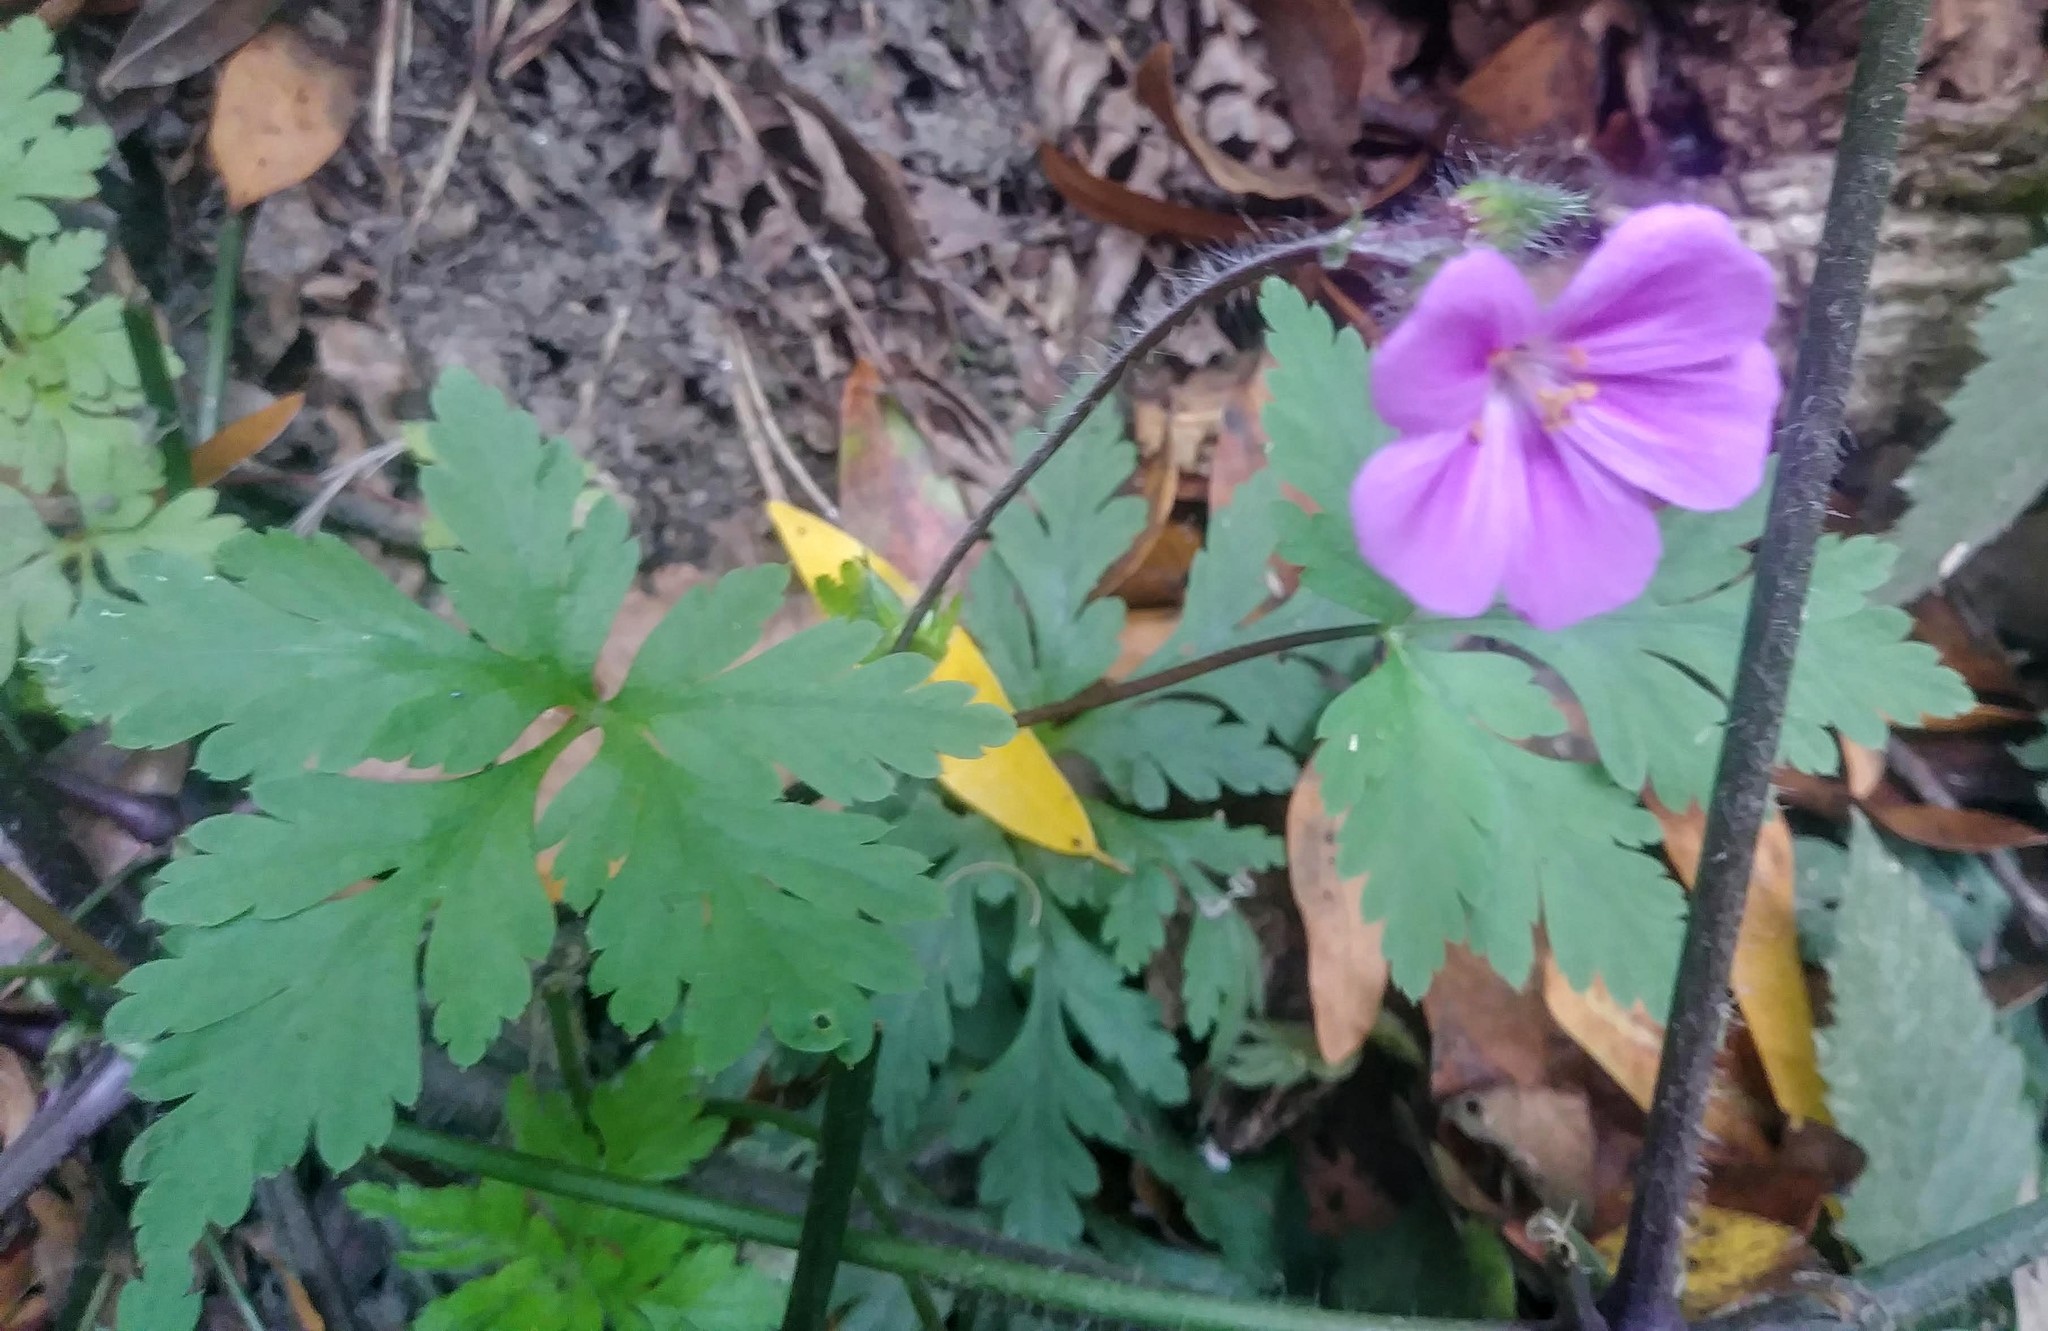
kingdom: Plantae
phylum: Tracheophyta
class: Magnoliopsida
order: Geraniales
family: Geraniaceae
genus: Geranium
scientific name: Geranium yeoi
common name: Greater herb robert
